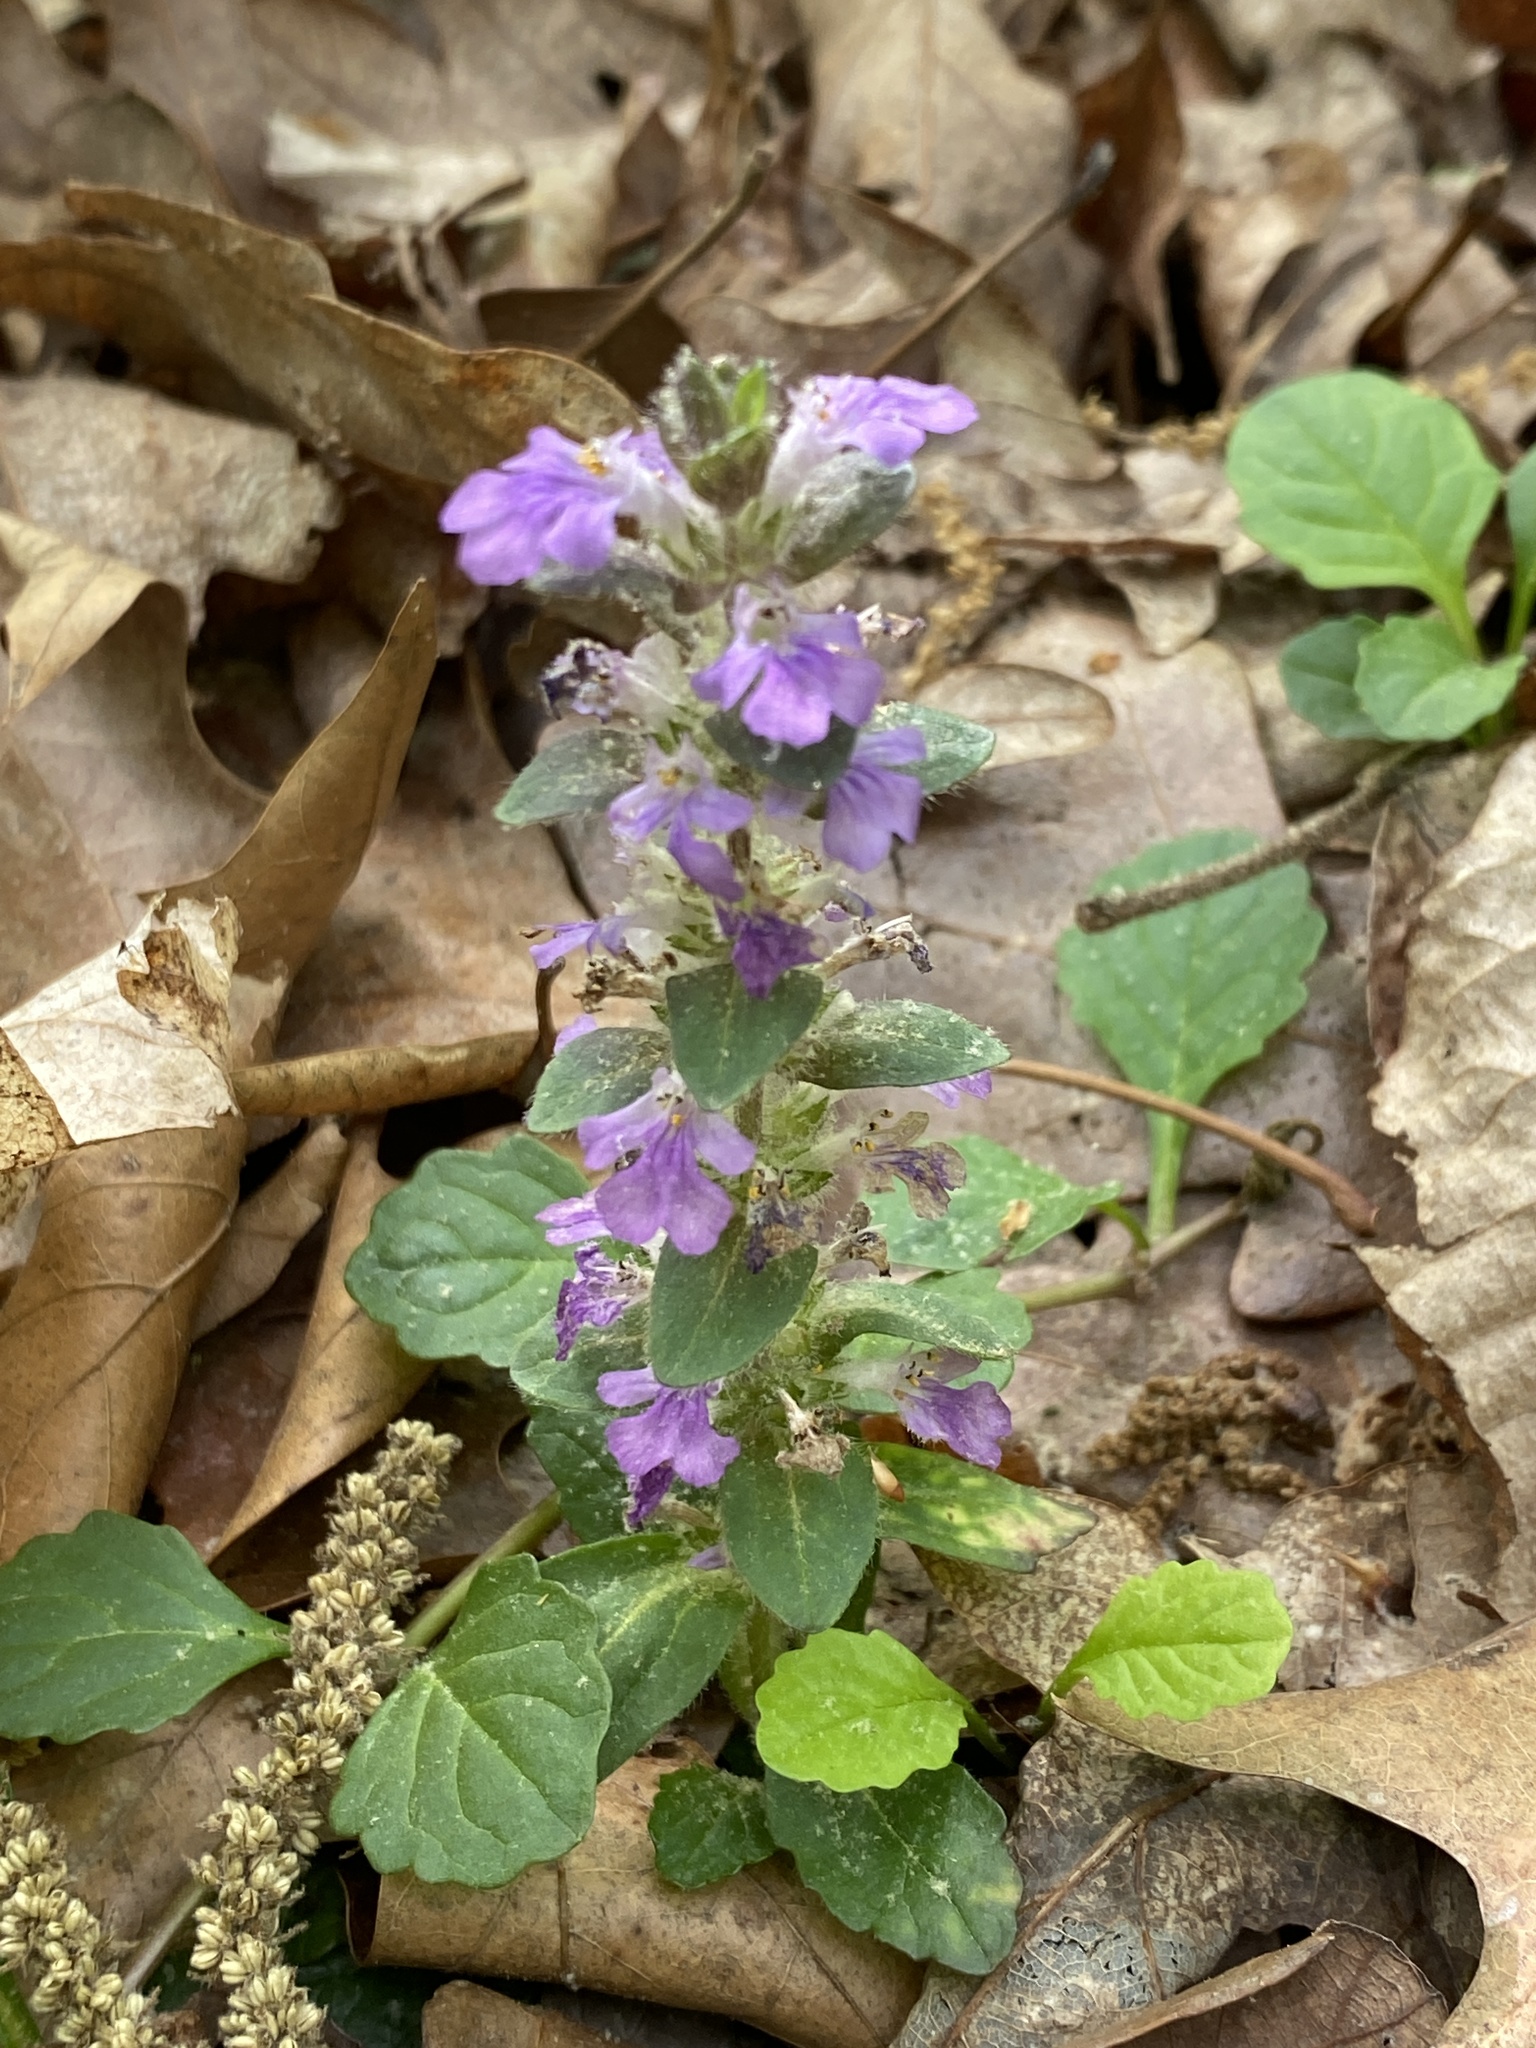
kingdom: Plantae
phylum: Tracheophyta
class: Magnoliopsida
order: Lamiales
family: Lamiaceae
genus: Ajuga
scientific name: Ajuga reptans
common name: Bugle
